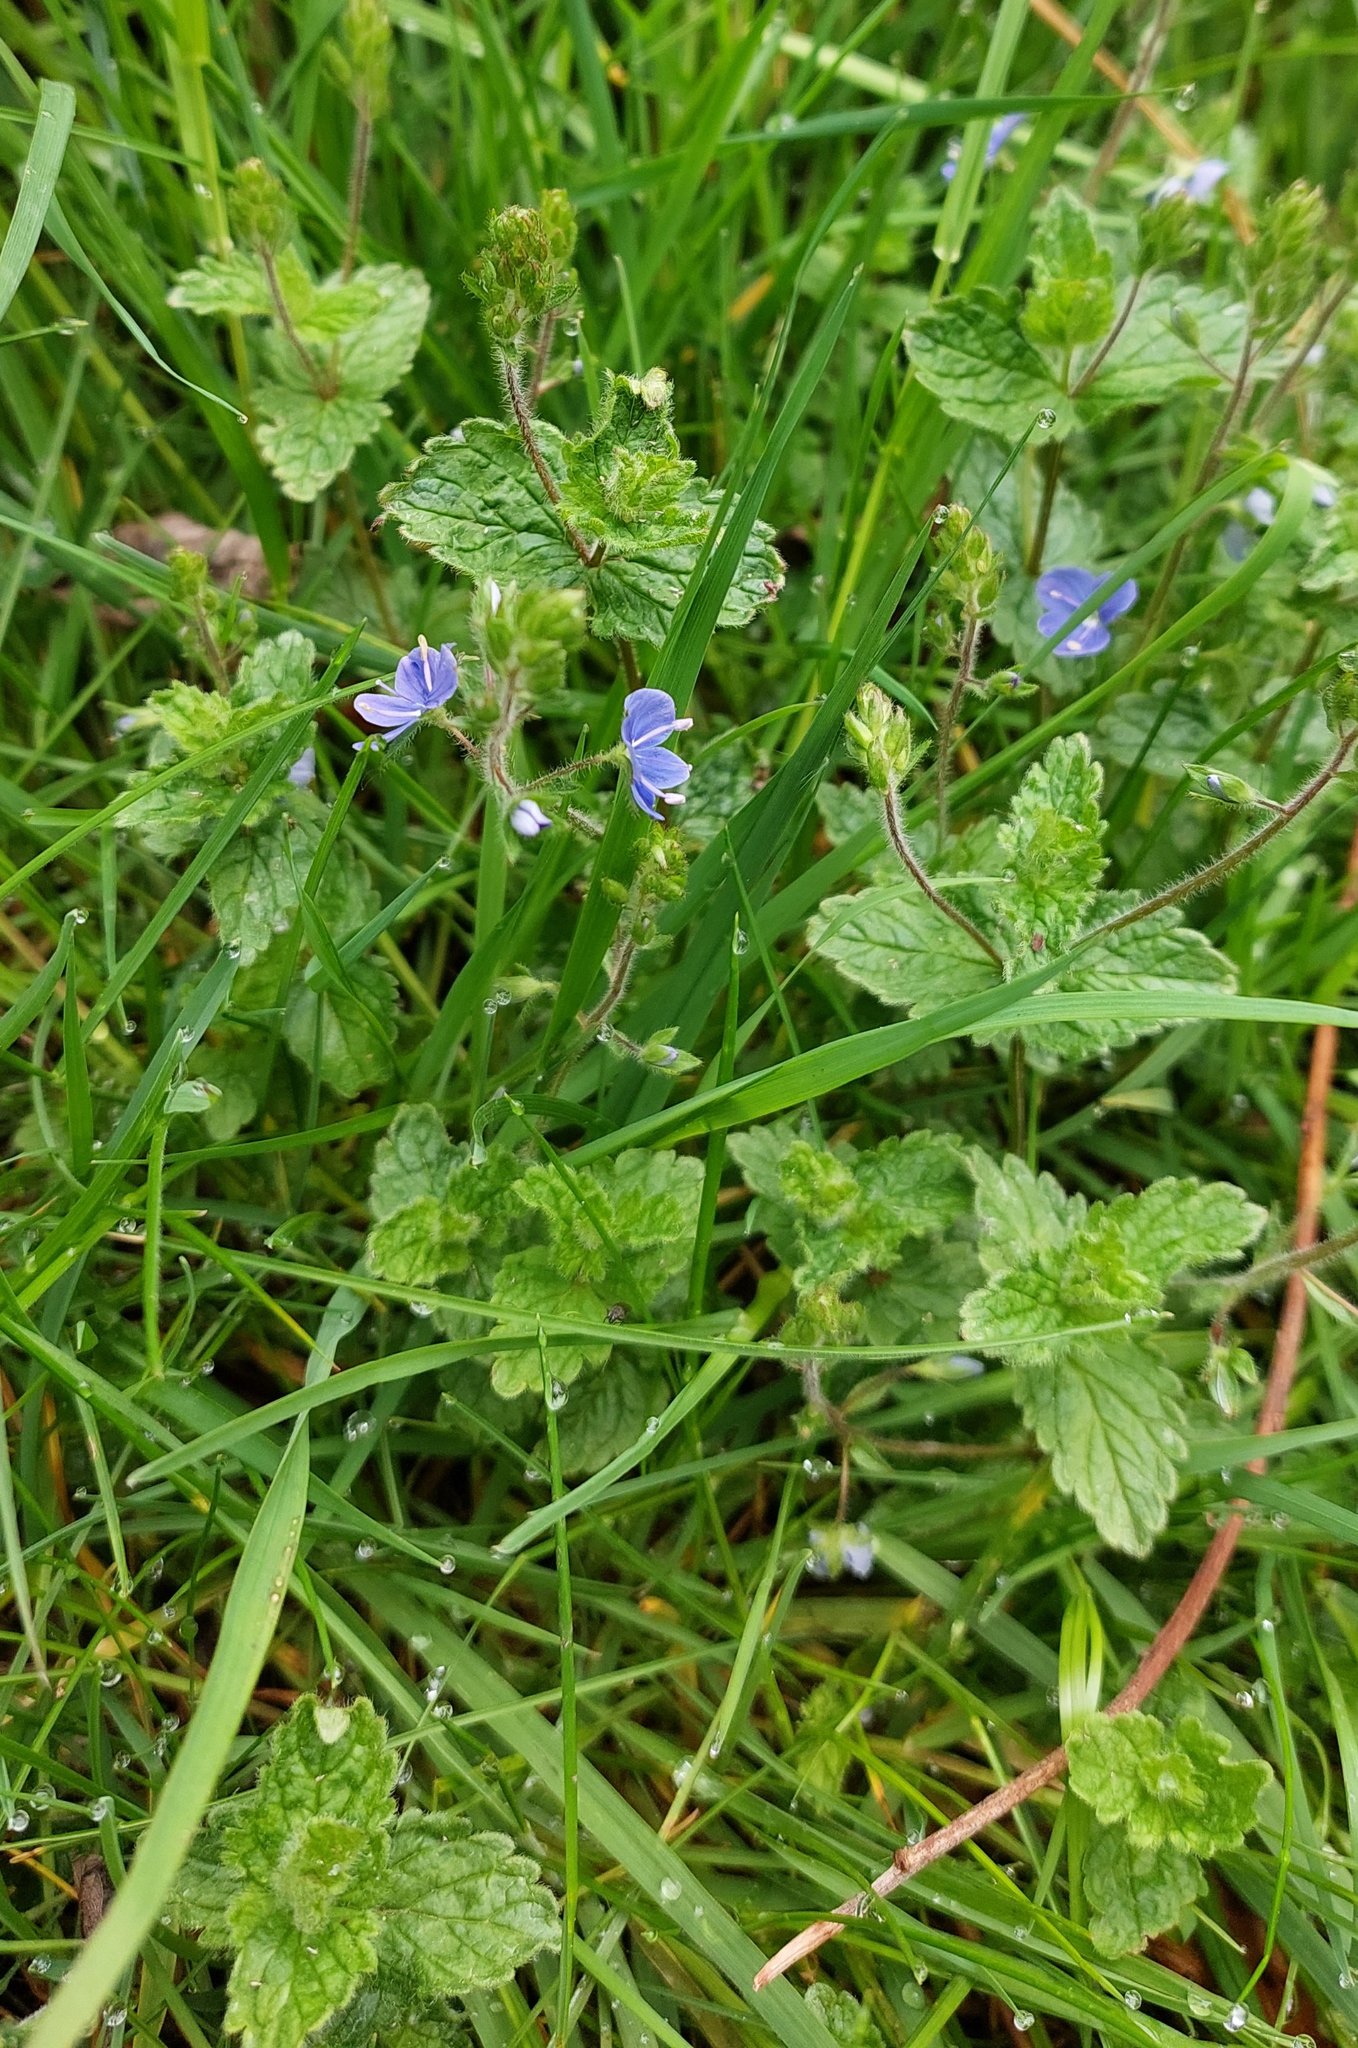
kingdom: Plantae
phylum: Tracheophyta
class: Magnoliopsida
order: Lamiales
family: Plantaginaceae
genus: Veronica
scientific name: Veronica chamaedrys
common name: Germander speedwell
